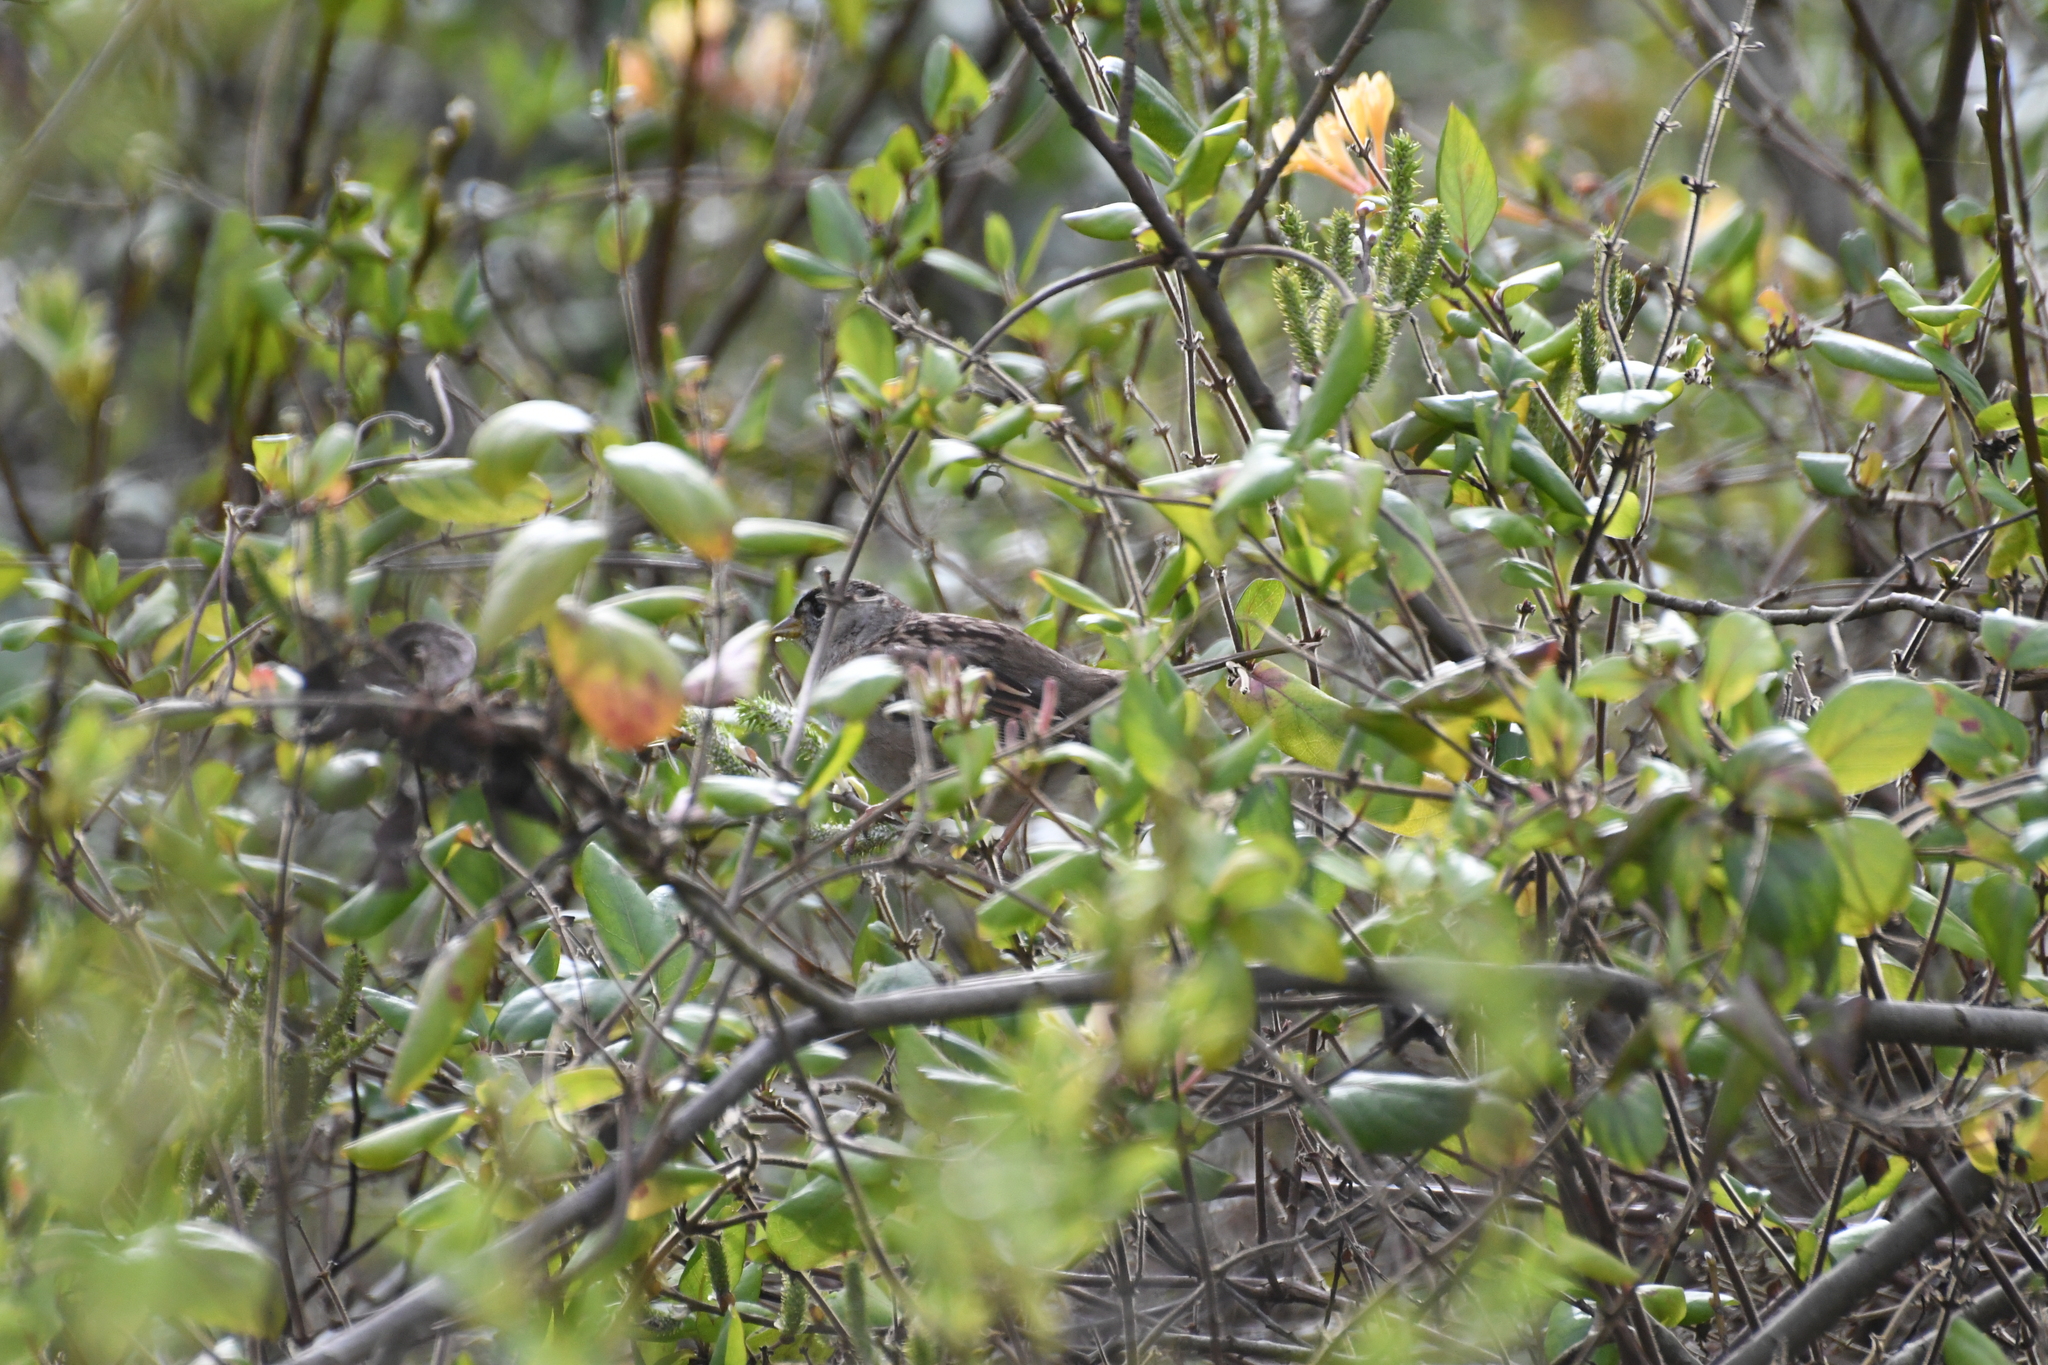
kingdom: Animalia
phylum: Chordata
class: Aves
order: Passeriformes
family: Passerellidae
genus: Zonotrichia
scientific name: Zonotrichia atricapilla
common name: Golden-crowned sparrow
